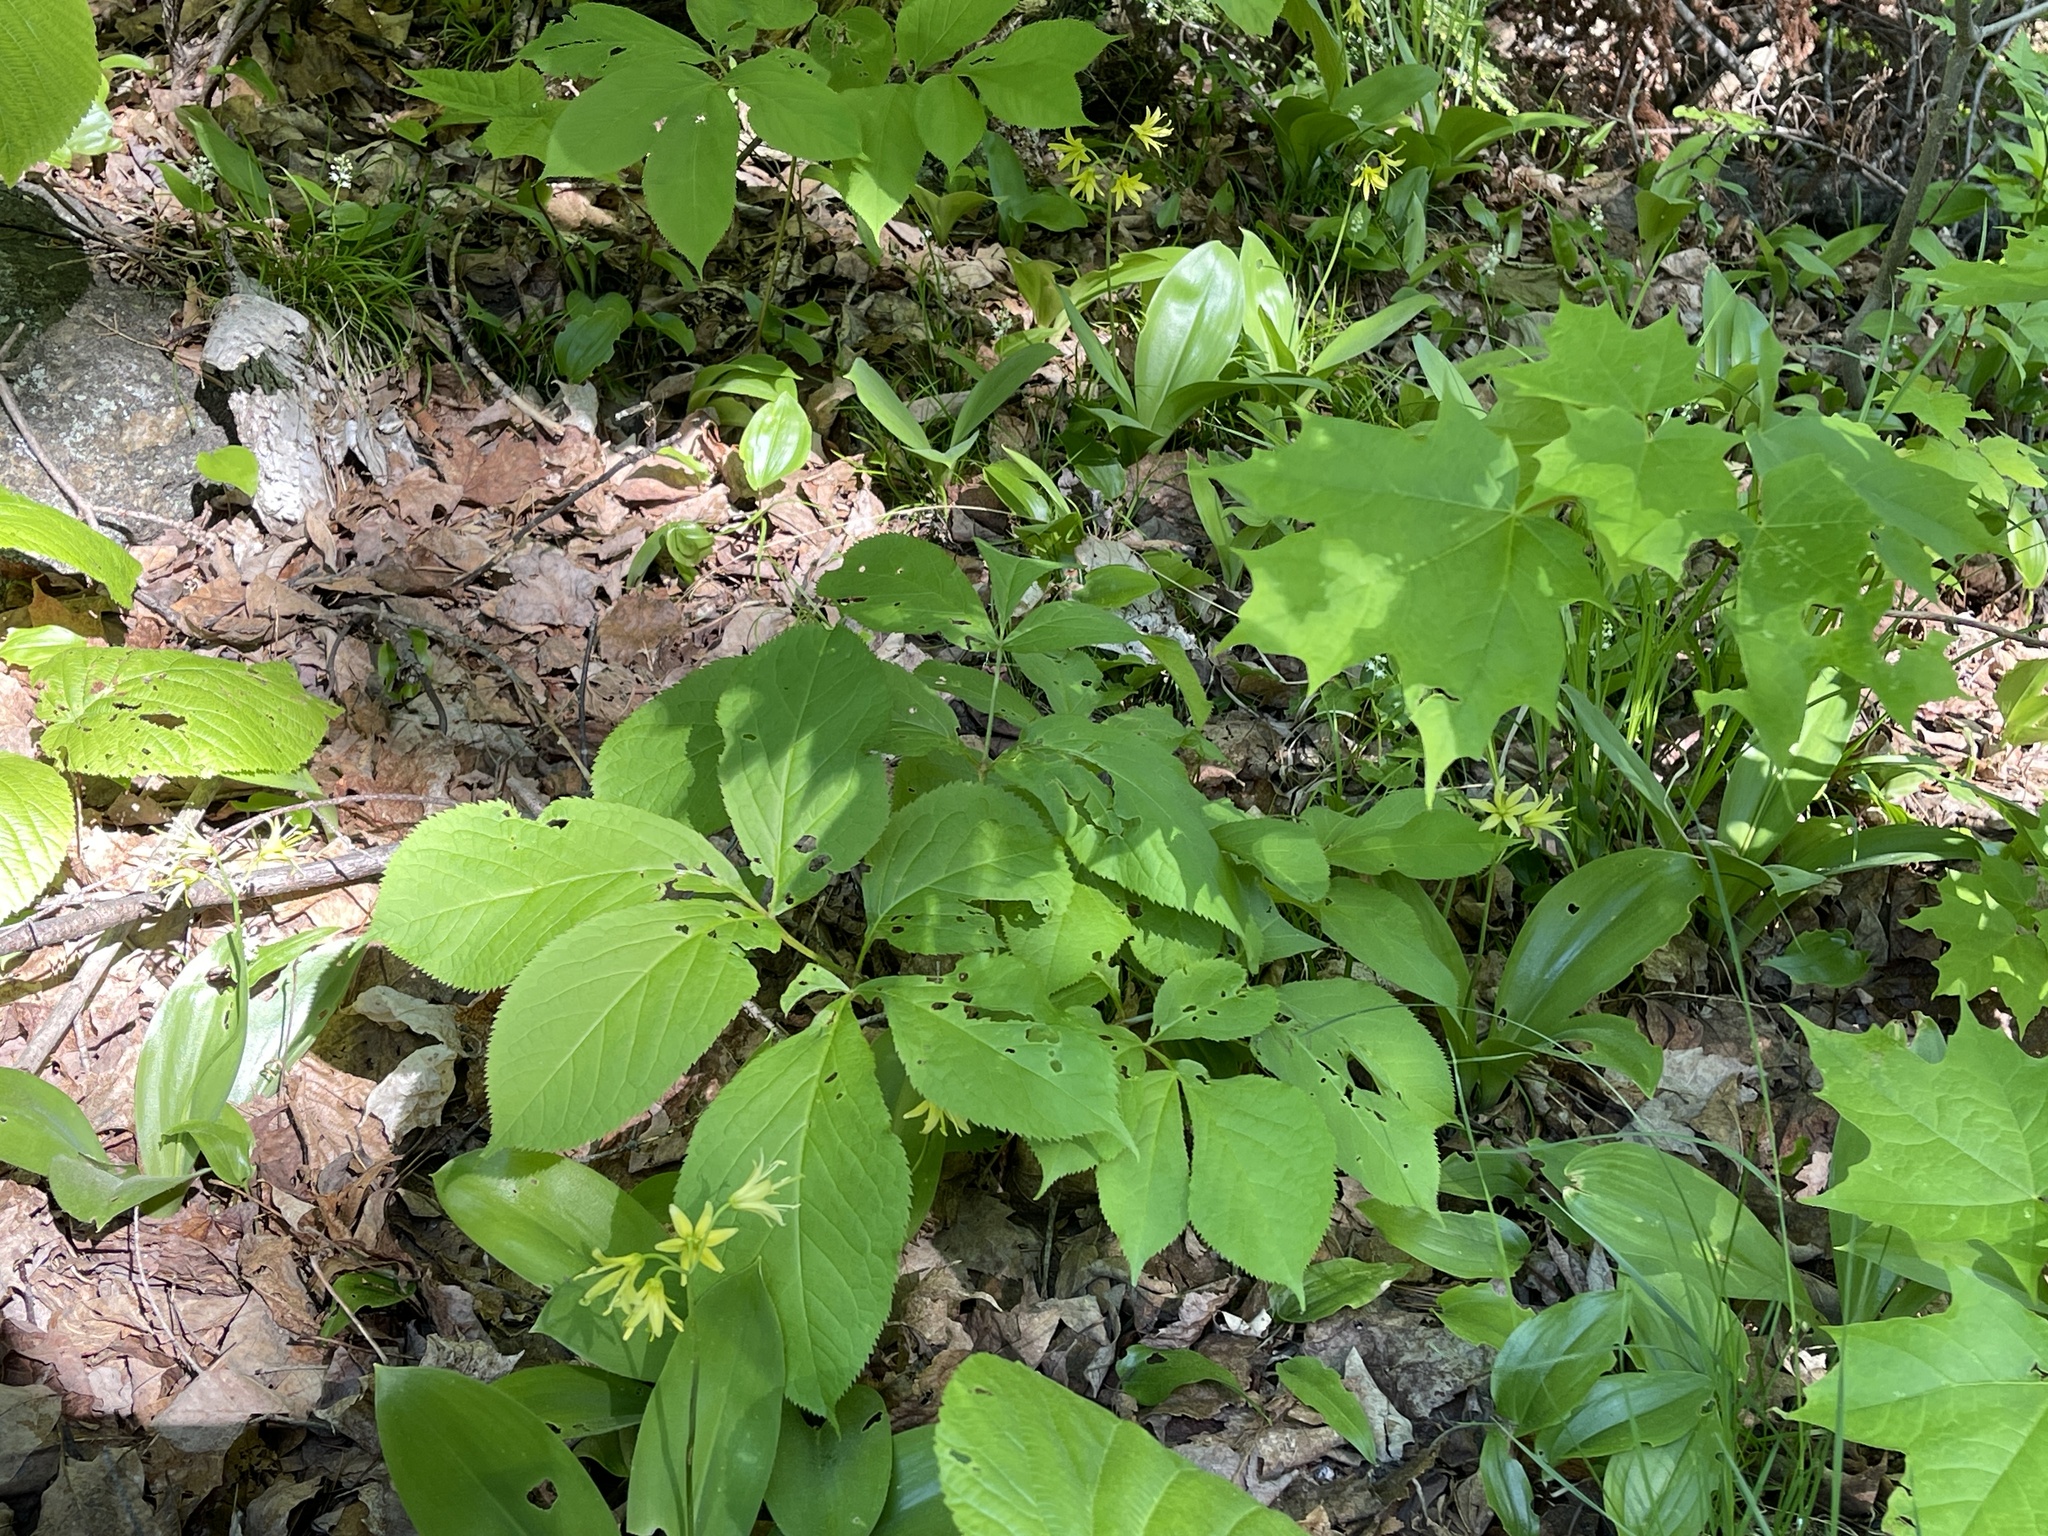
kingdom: Plantae
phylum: Tracheophyta
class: Liliopsida
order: Liliales
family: Liliaceae
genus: Clintonia
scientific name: Clintonia borealis
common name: Yellow clintonia
